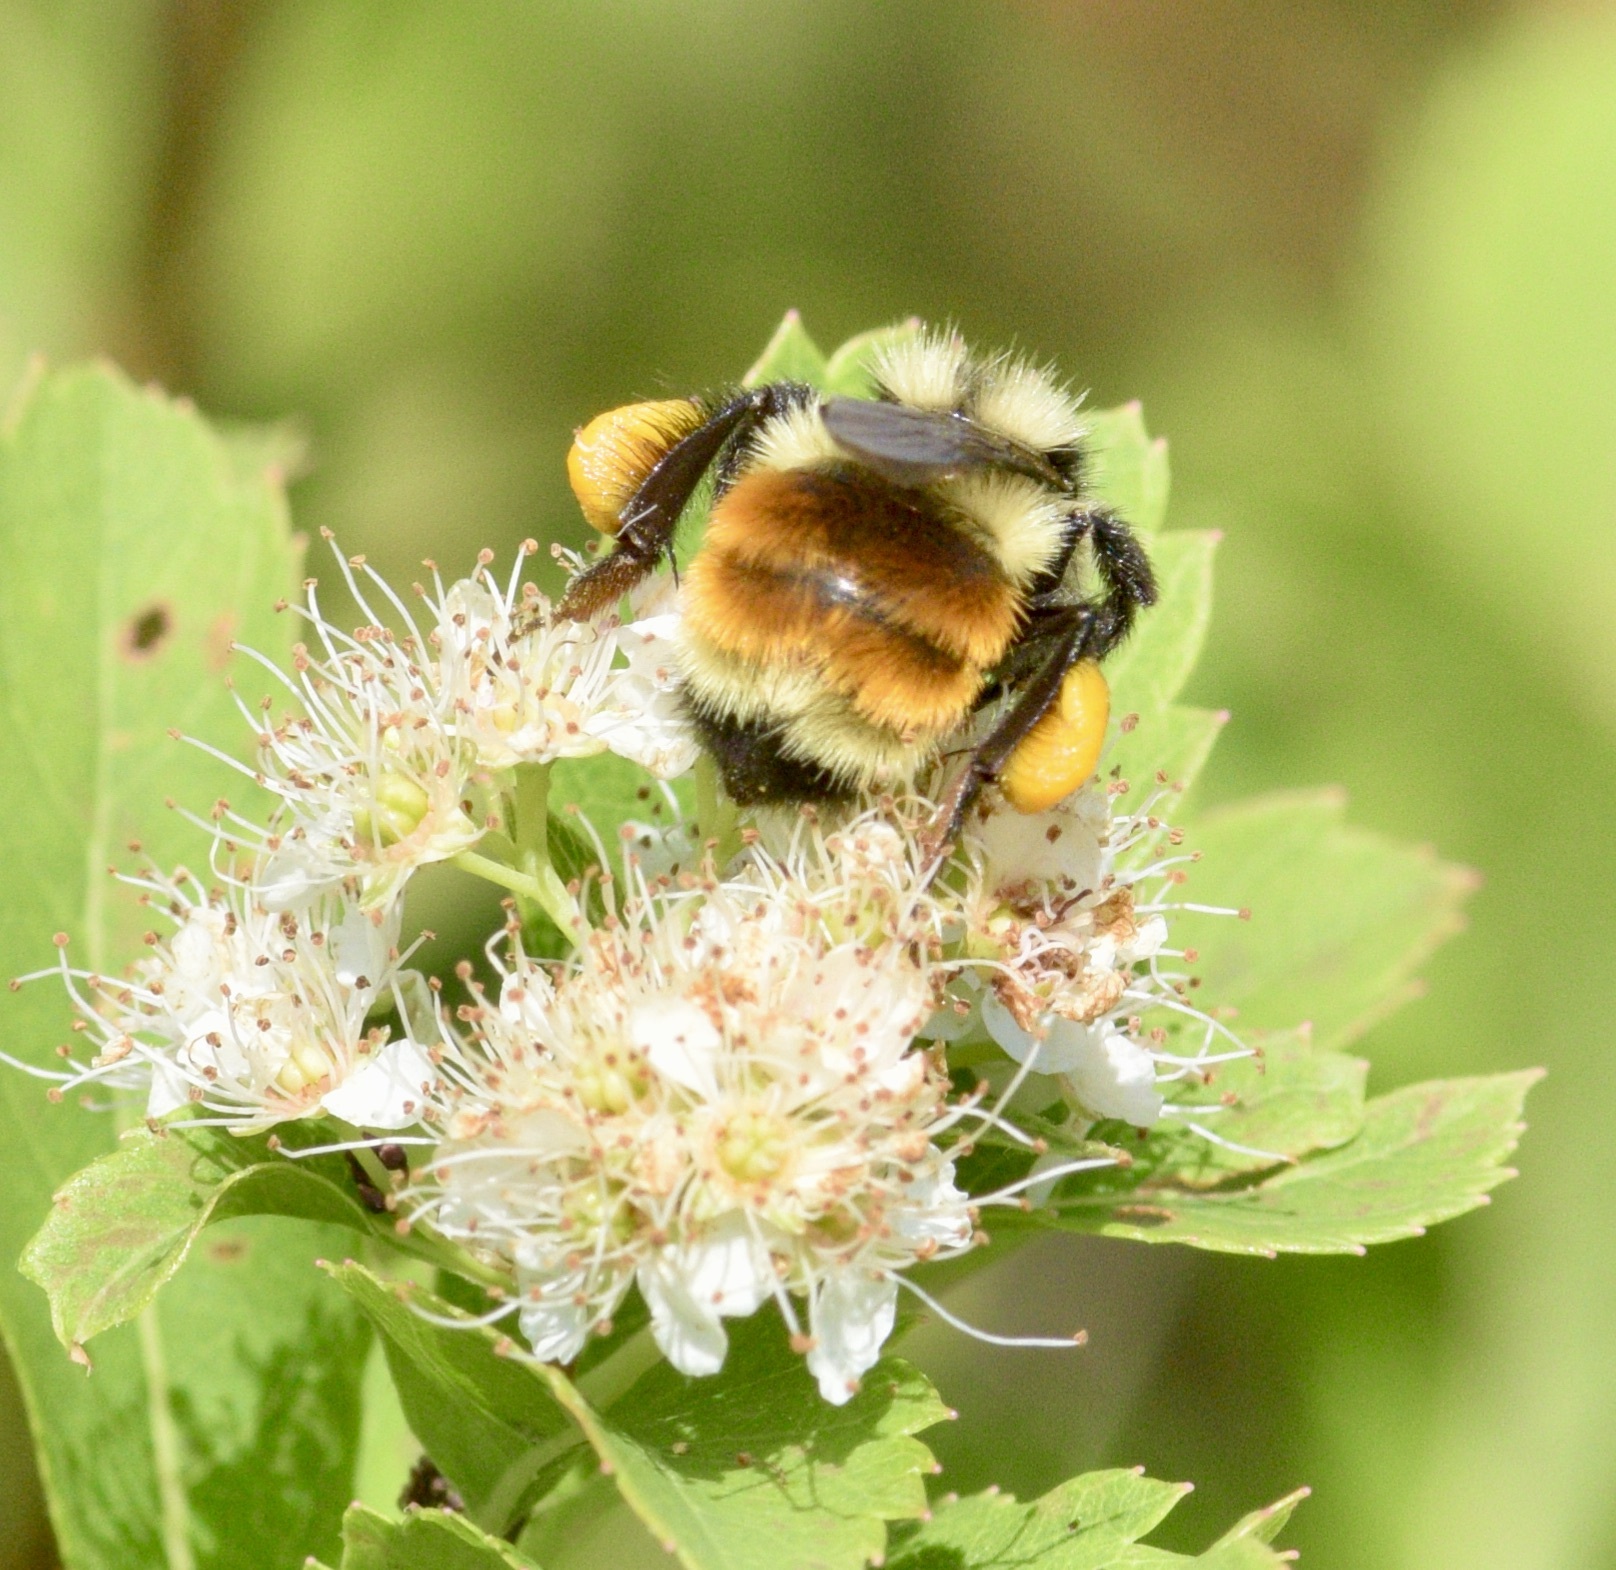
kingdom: Animalia
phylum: Arthropoda
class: Insecta
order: Hymenoptera
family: Apidae
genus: Bombus
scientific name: Bombus ternarius
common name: Tri-colored bumble bee
